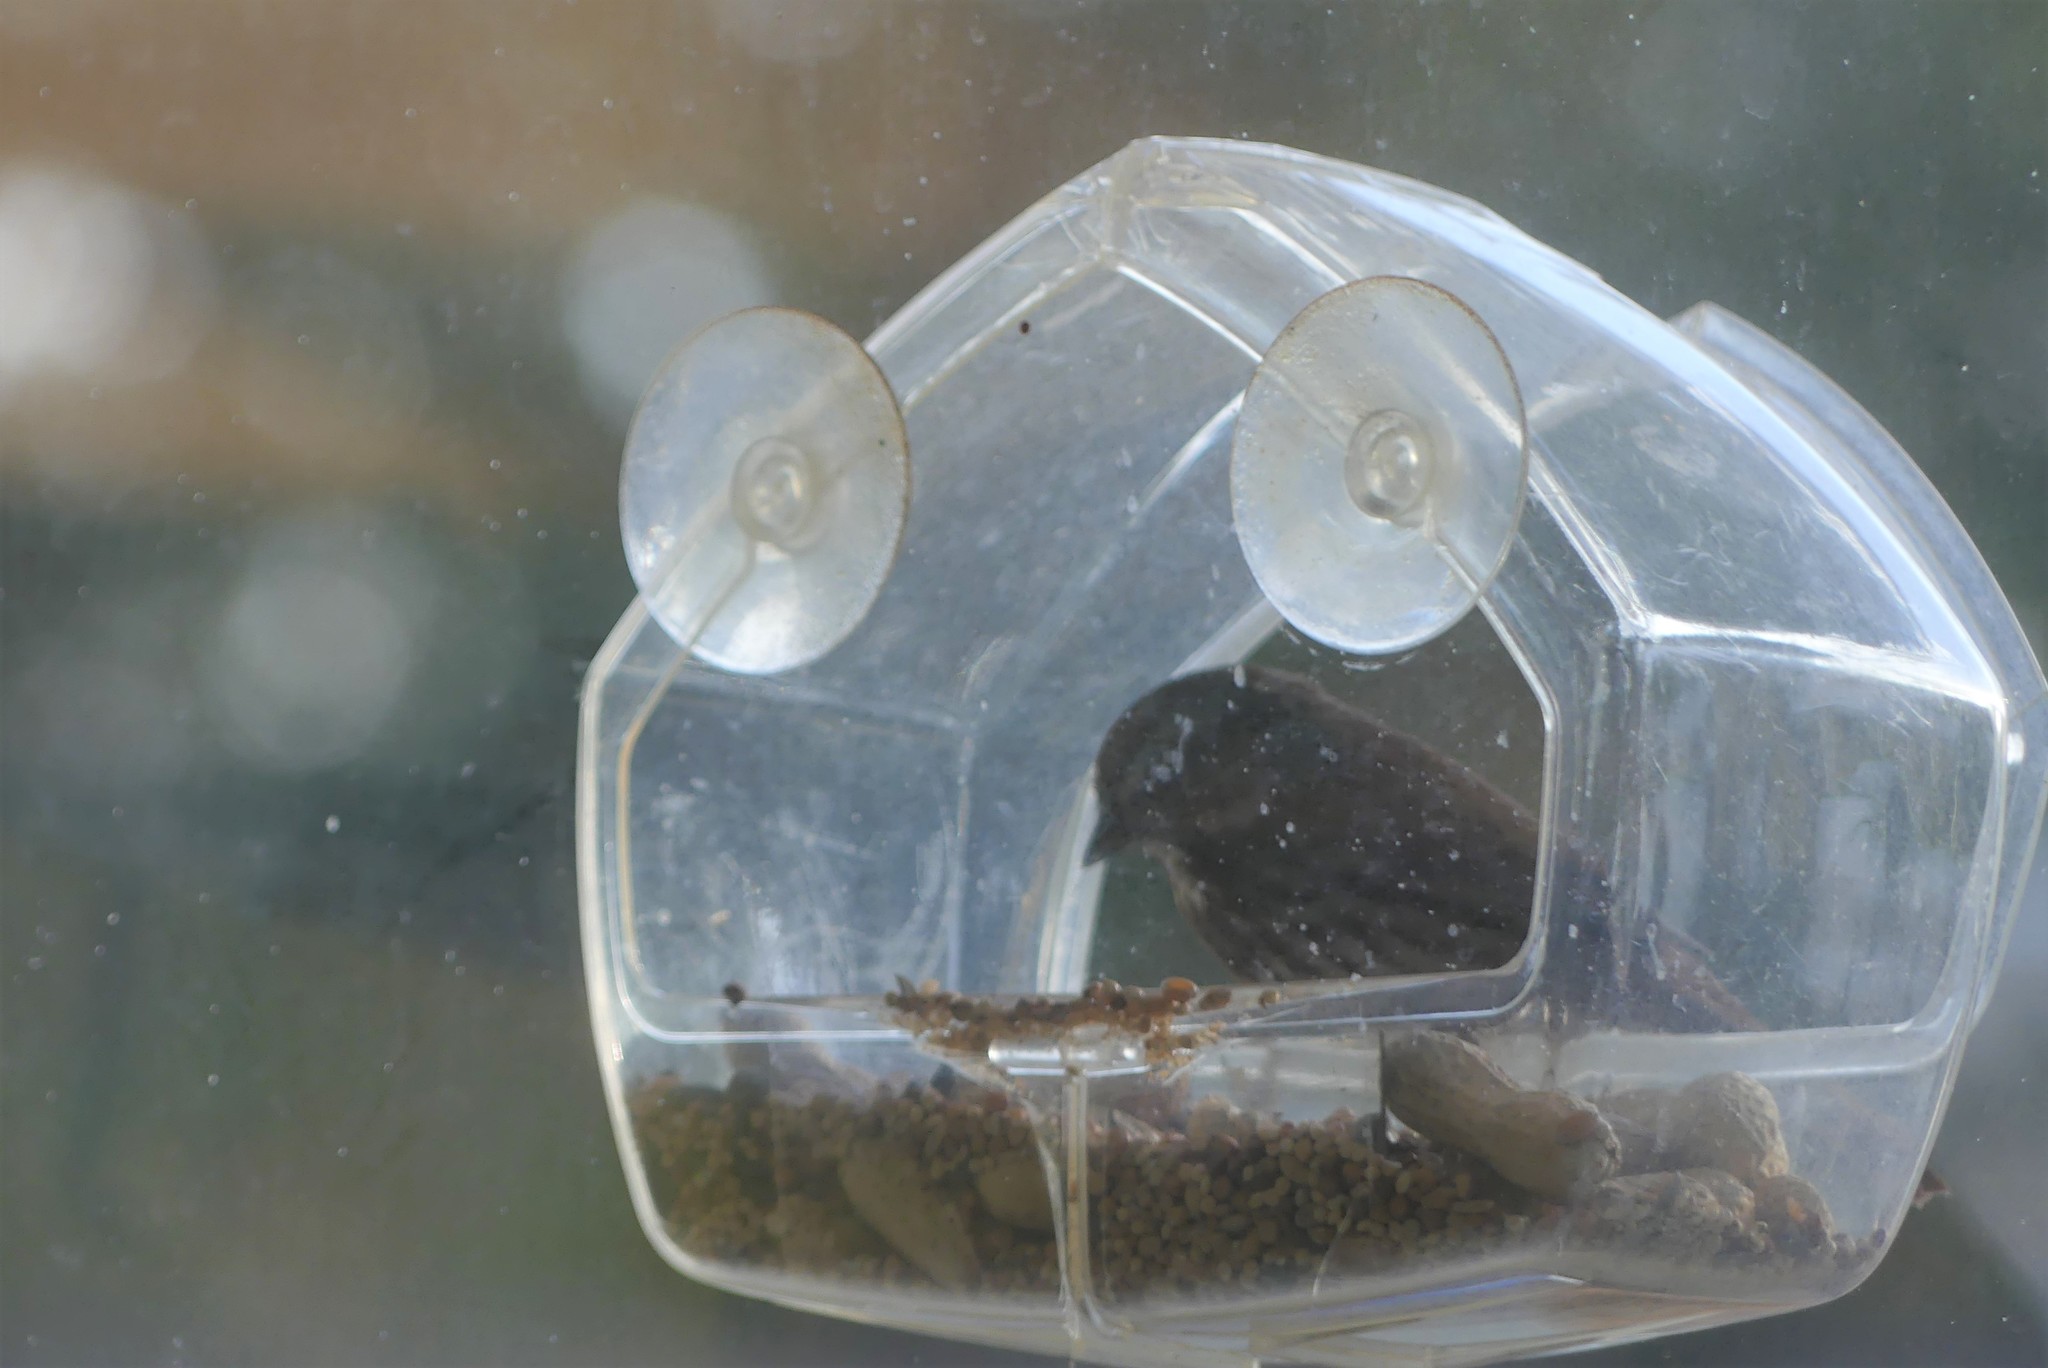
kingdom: Animalia
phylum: Chordata
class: Aves
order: Passeriformes
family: Passerellidae
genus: Melospiza
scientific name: Melospiza melodia
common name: Song sparrow
